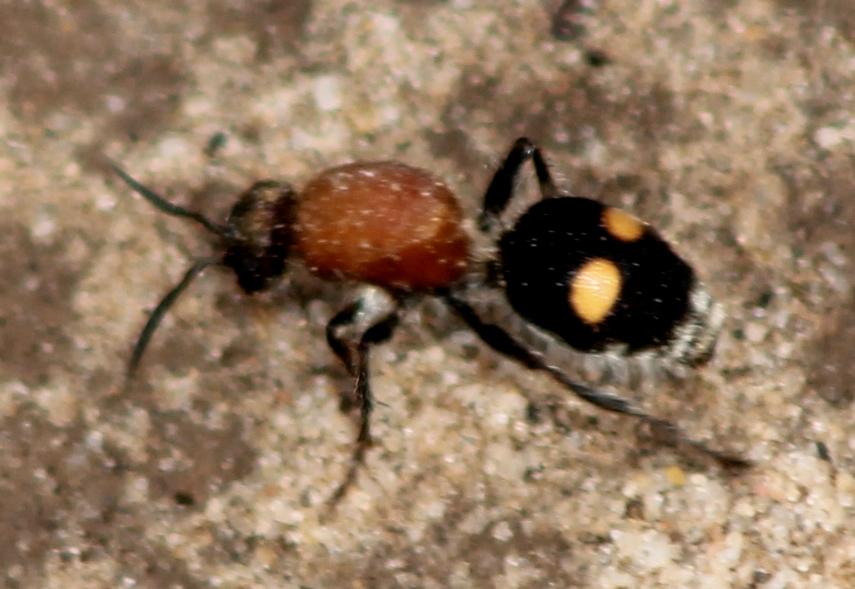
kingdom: Animalia
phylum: Arthropoda
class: Insecta
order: Hymenoptera
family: Mutillidae
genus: Dasymutilla
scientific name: Dasymutilla
